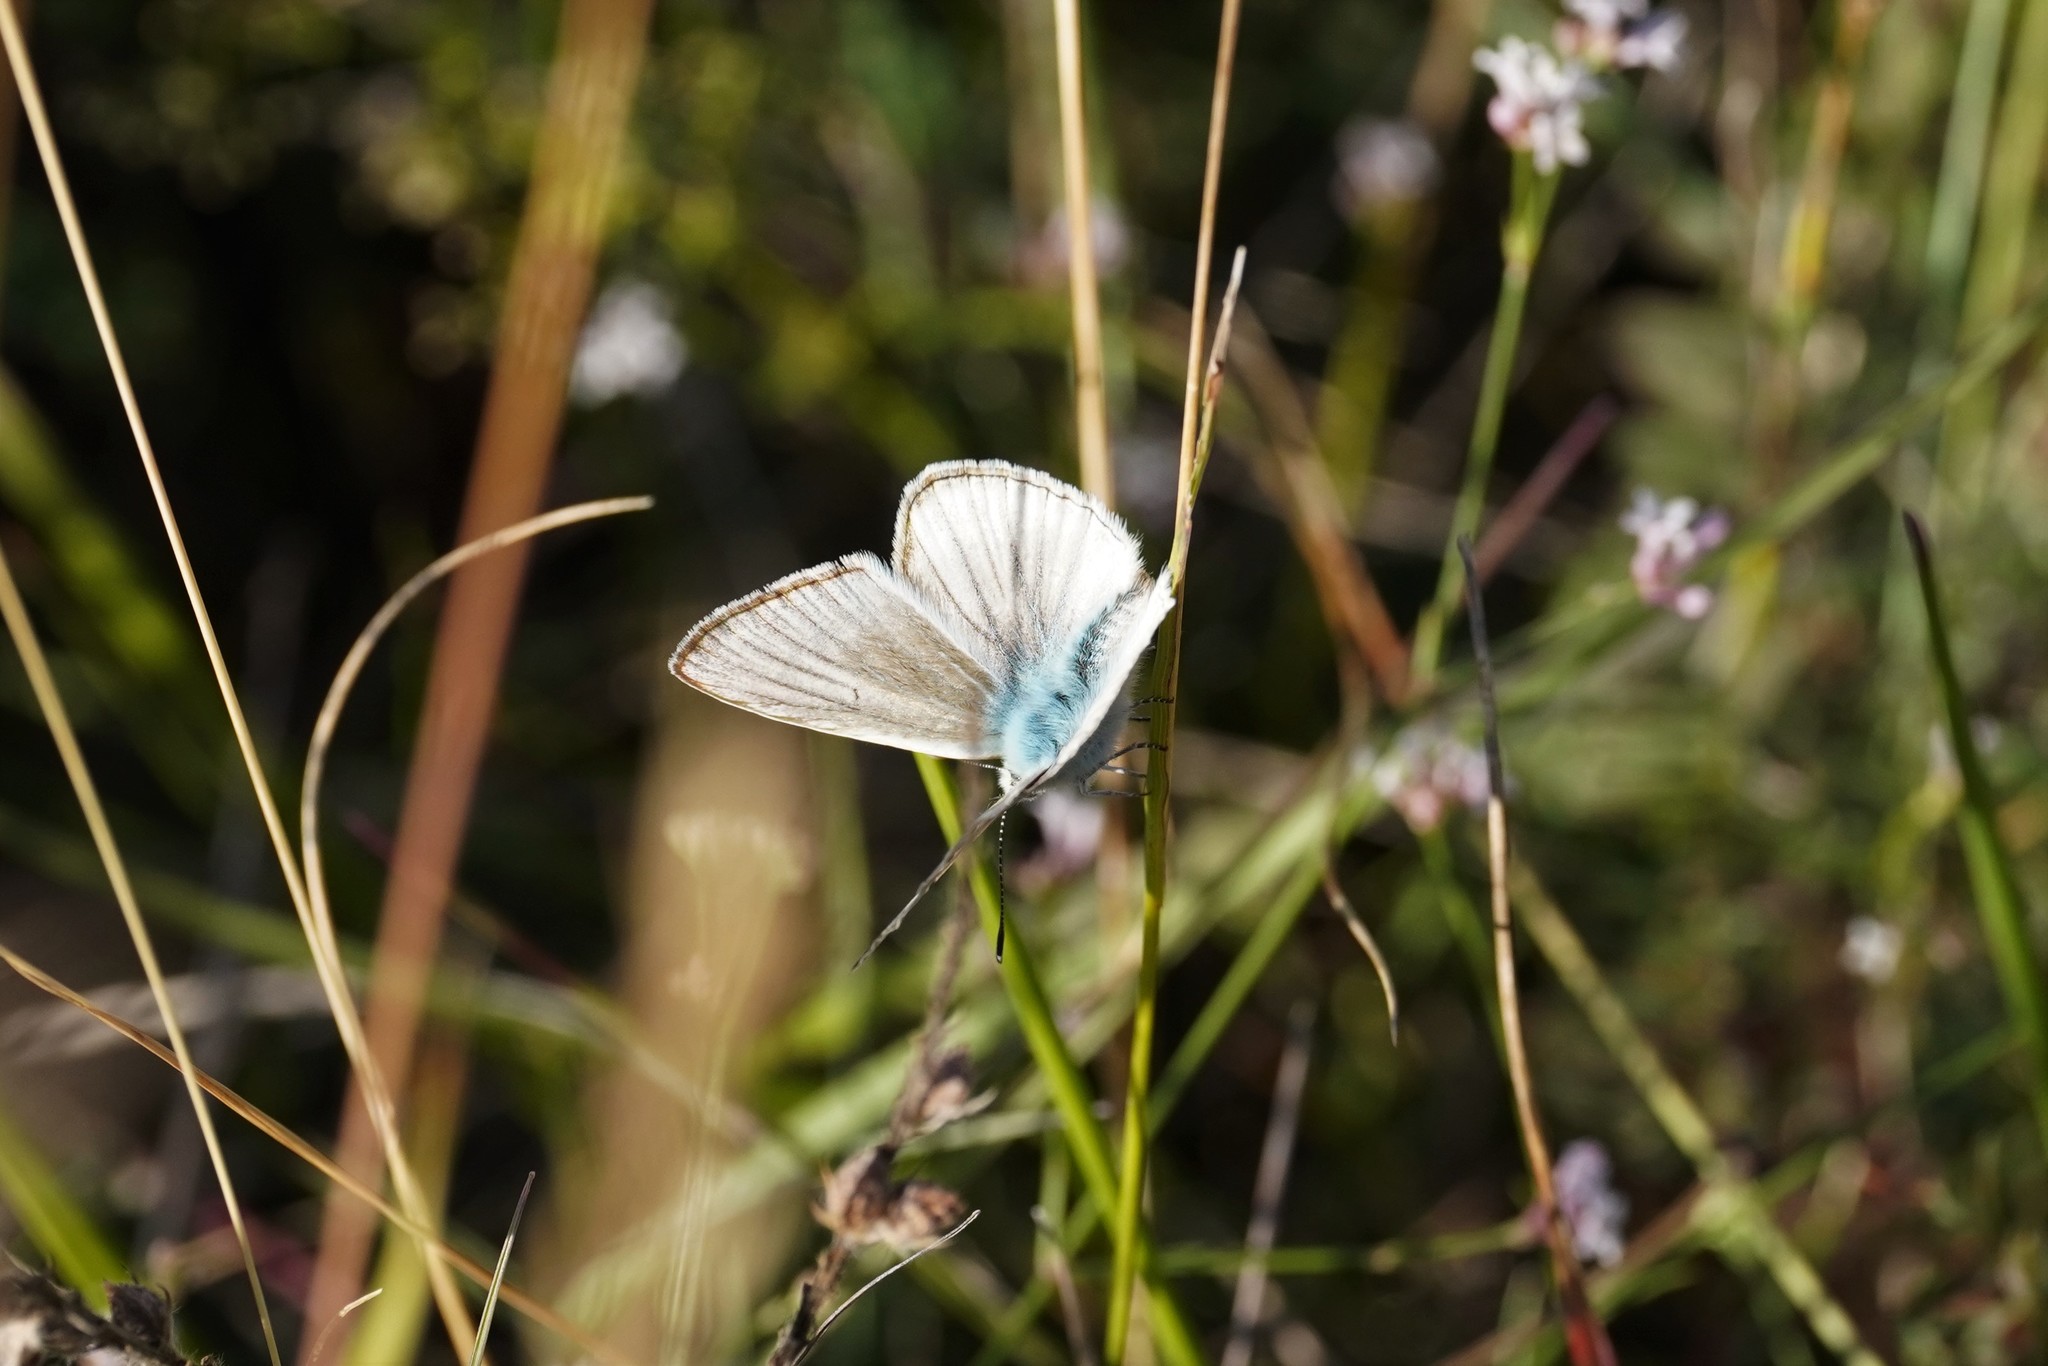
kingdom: Animalia
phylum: Arthropoda
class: Insecta
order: Lepidoptera
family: Lycaenidae
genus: Agrodiaetus
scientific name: Agrodiaetus dolus
